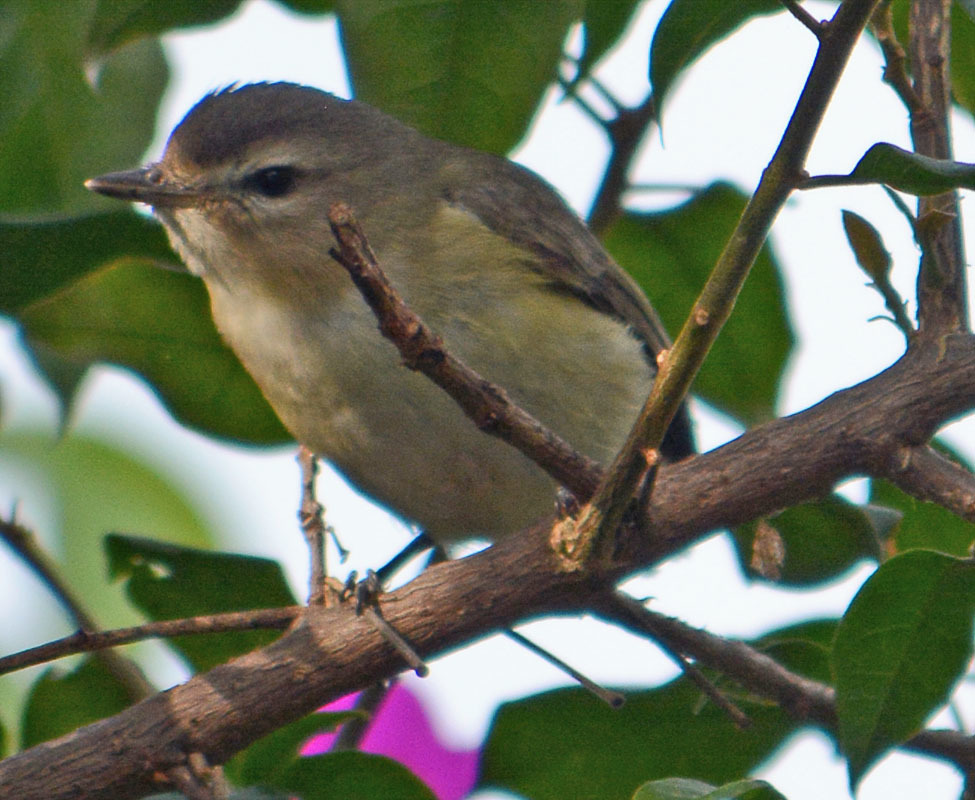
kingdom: Animalia
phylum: Chordata
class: Aves
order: Passeriformes
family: Vireonidae
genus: Vireo
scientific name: Vireo gilvus
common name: Warbling vireo
